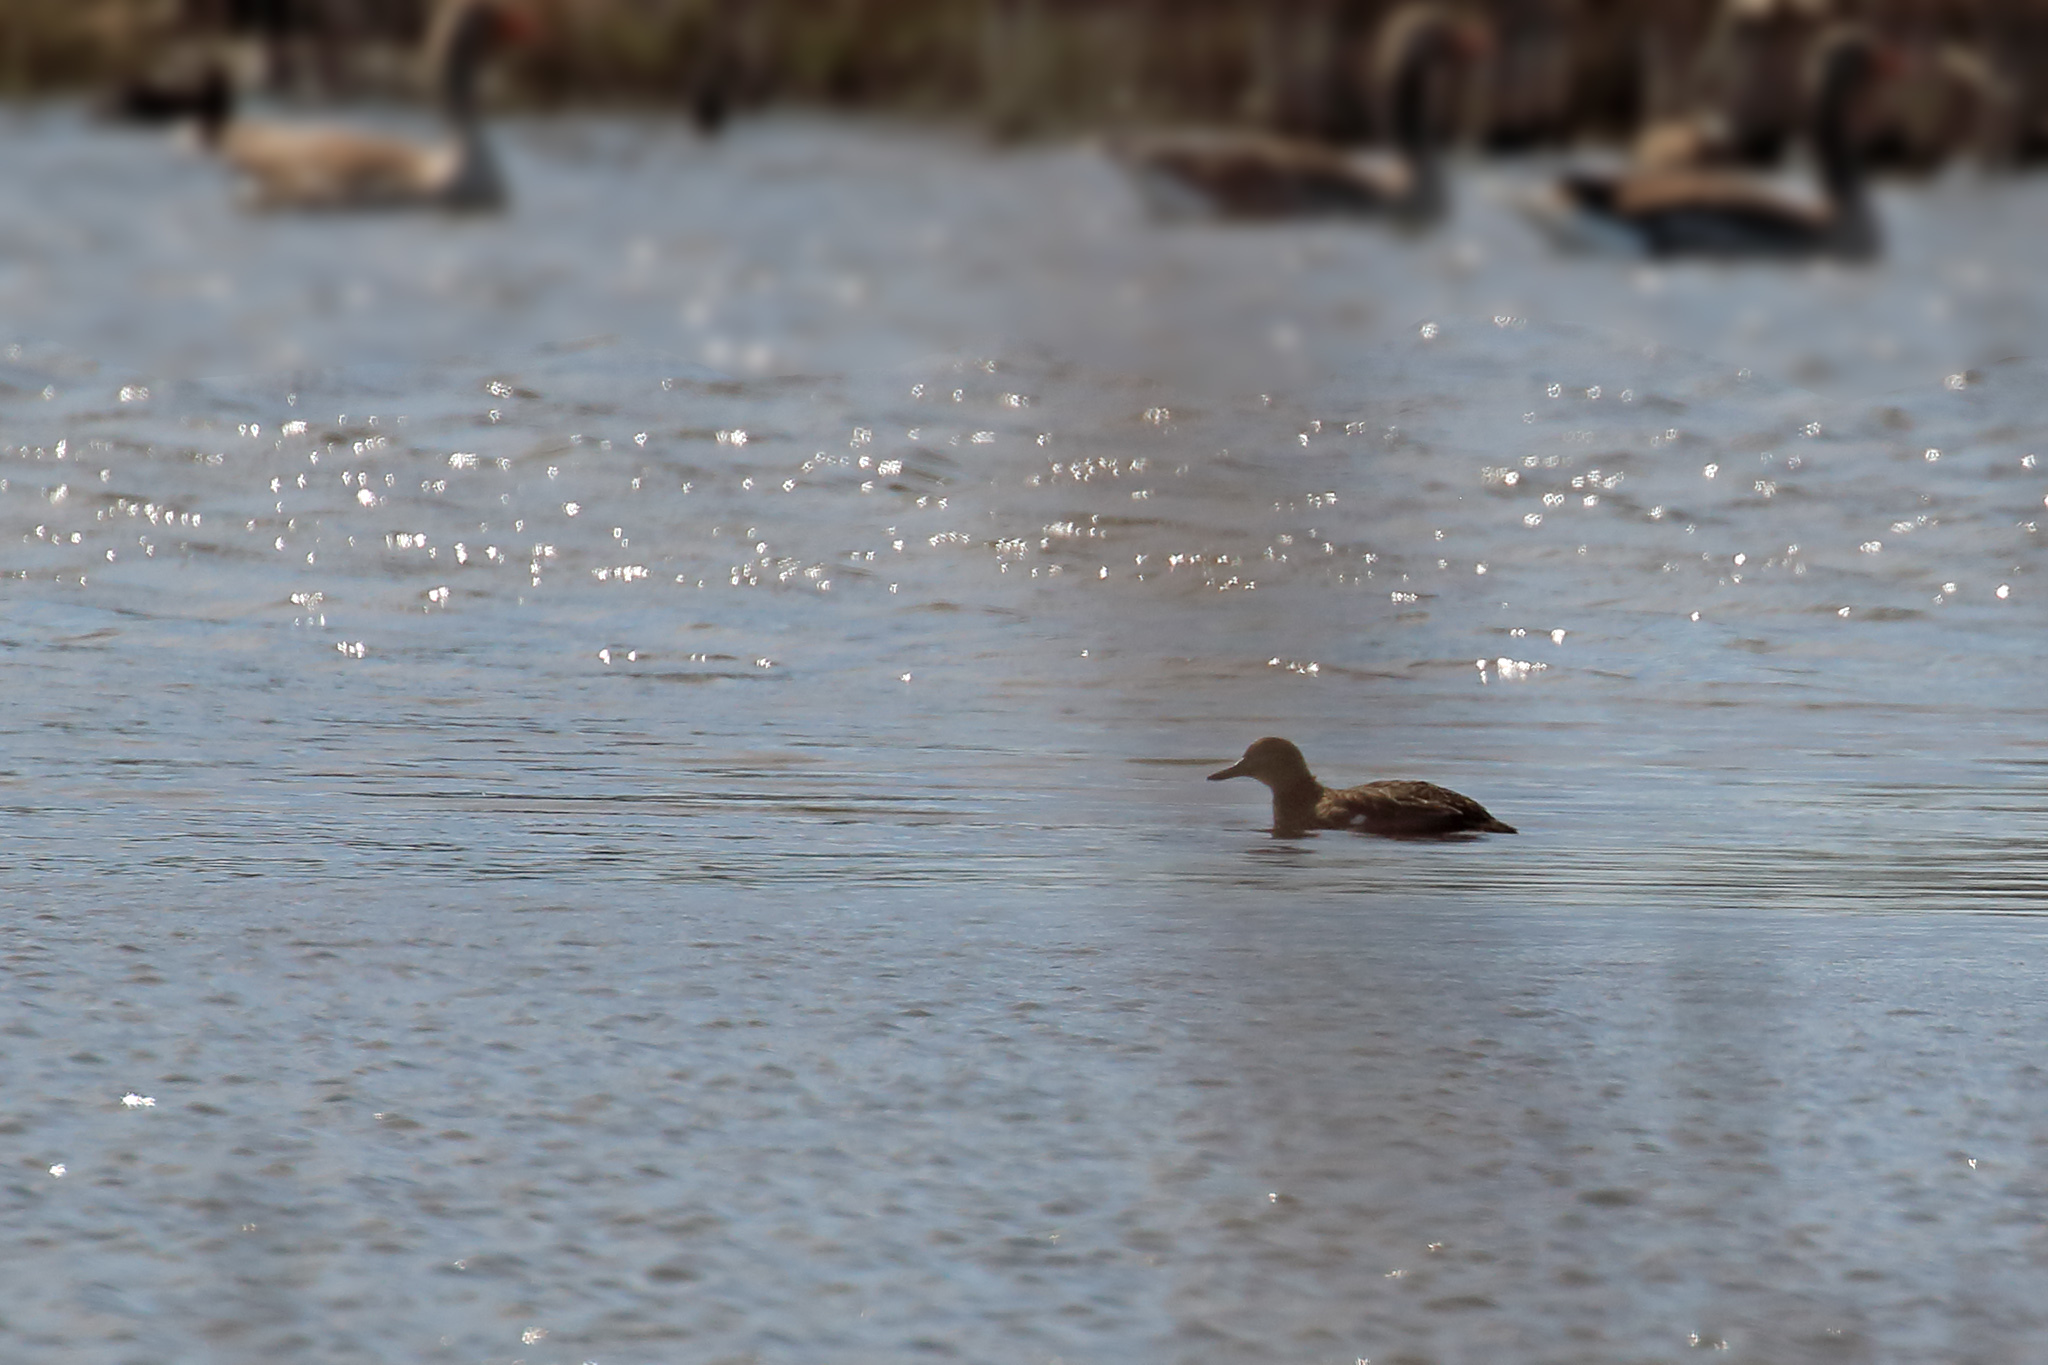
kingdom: Animalia
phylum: Chordata
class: Aves
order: Anseriformes
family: Anatidae
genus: Anas
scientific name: Anas crecca
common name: Eurasian teal
